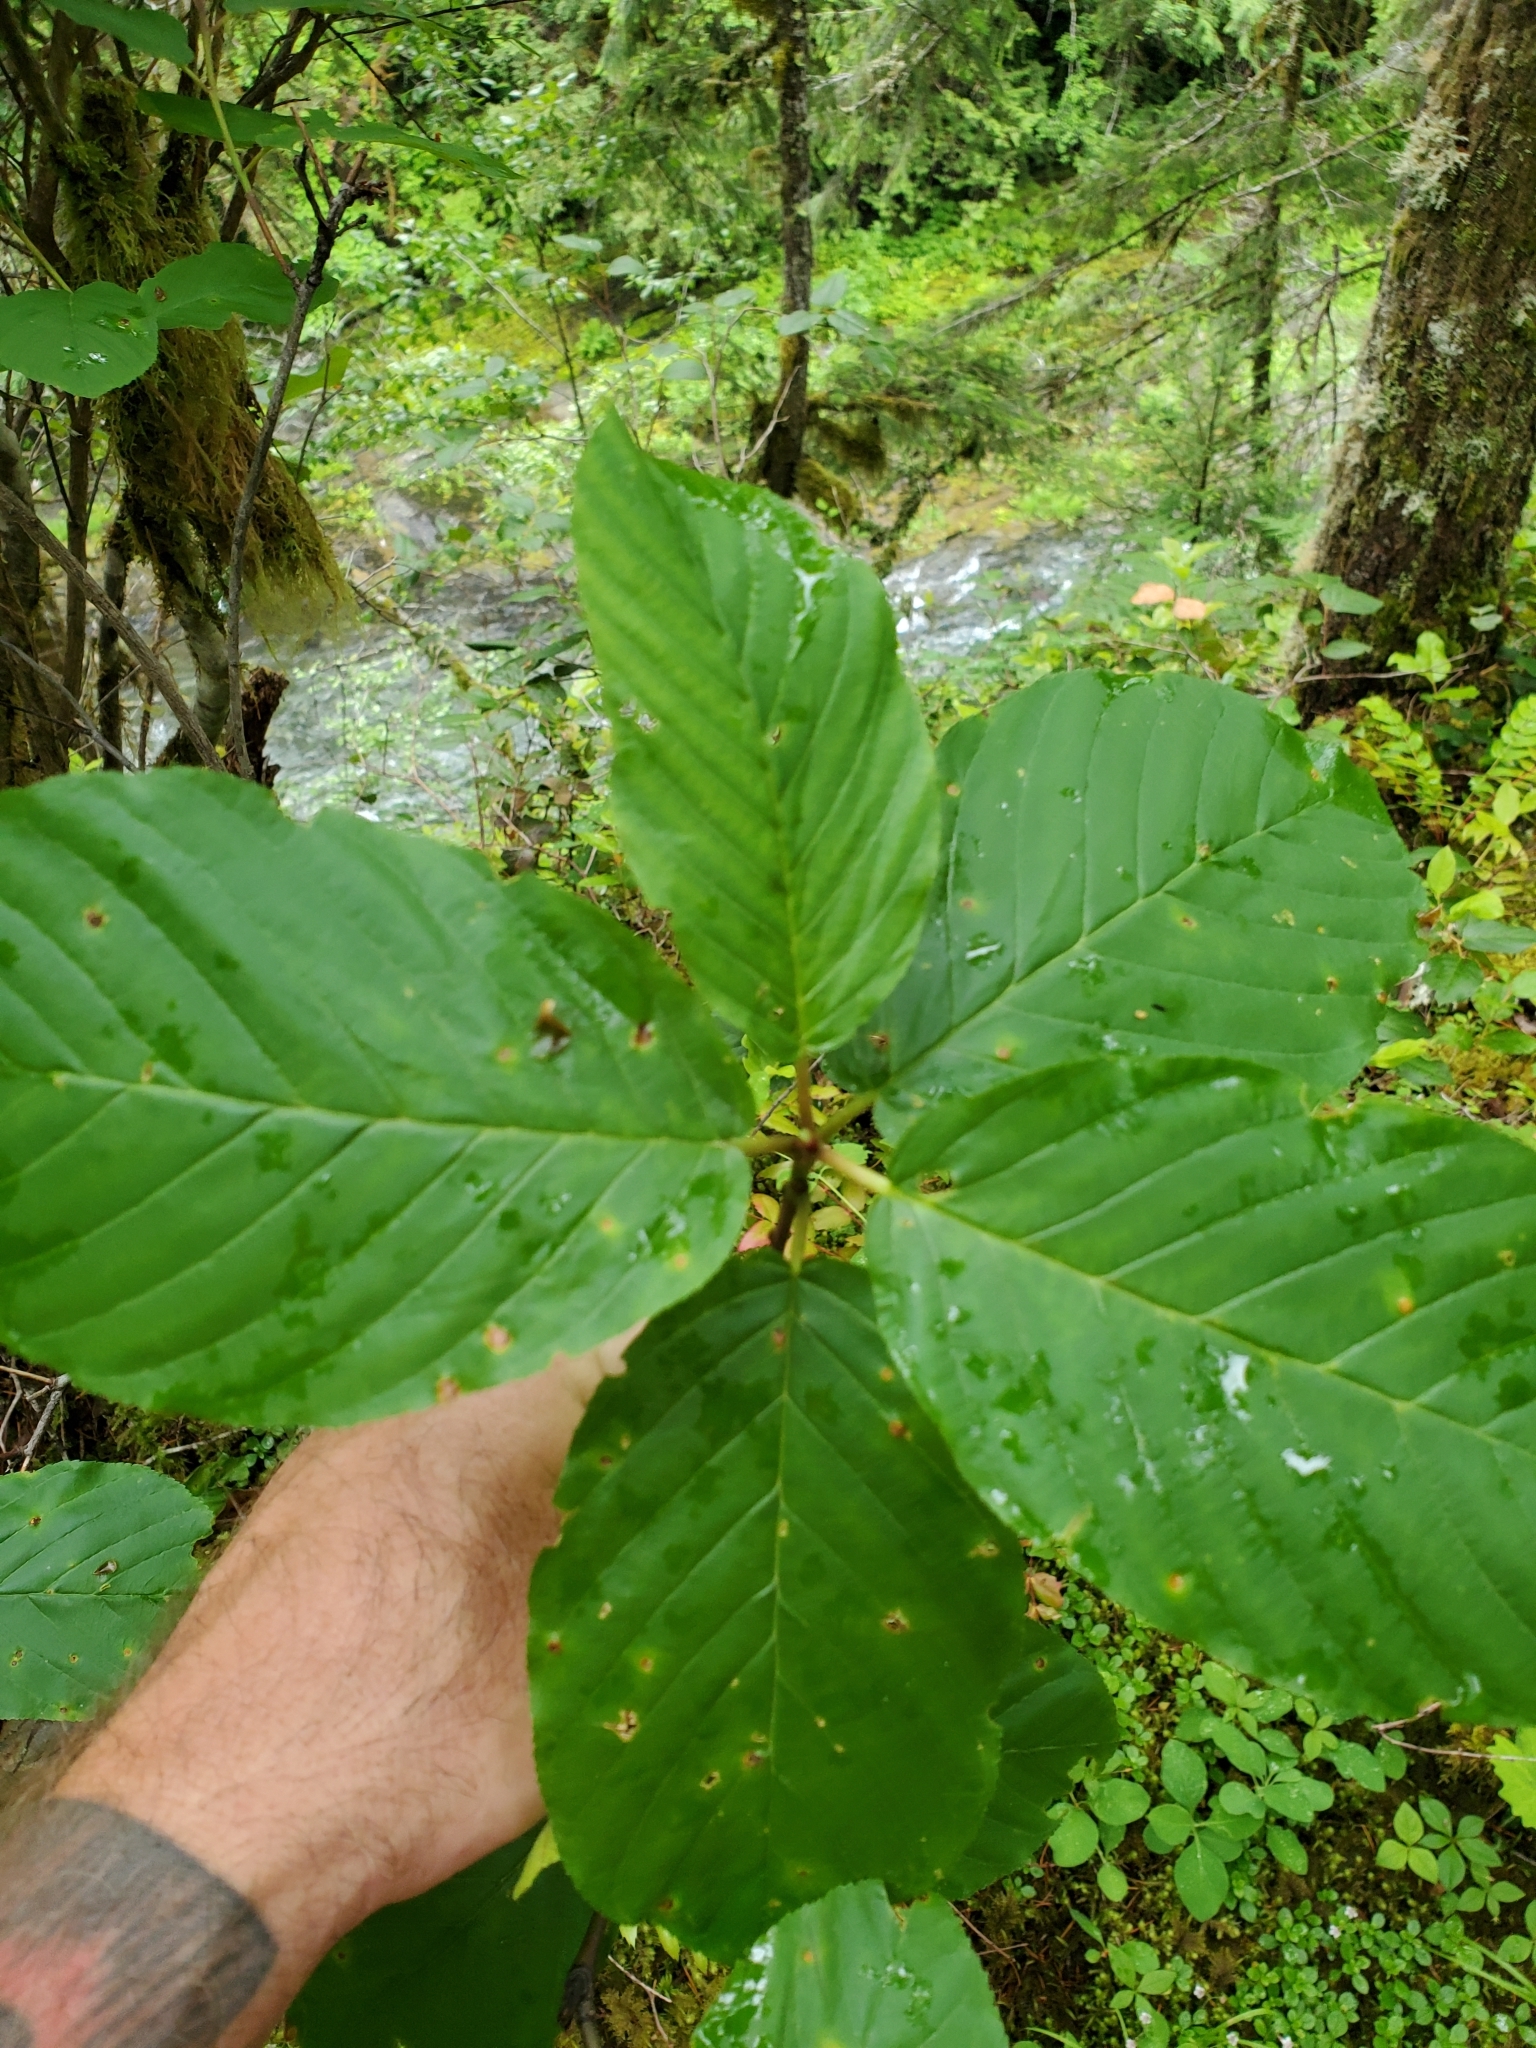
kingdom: Plantae
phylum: Tracheophyta
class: Magnoliopsida
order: Rosales
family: Rhamnaceae
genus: Frangula
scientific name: Frangula purshiana
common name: Cascara buckthorn
